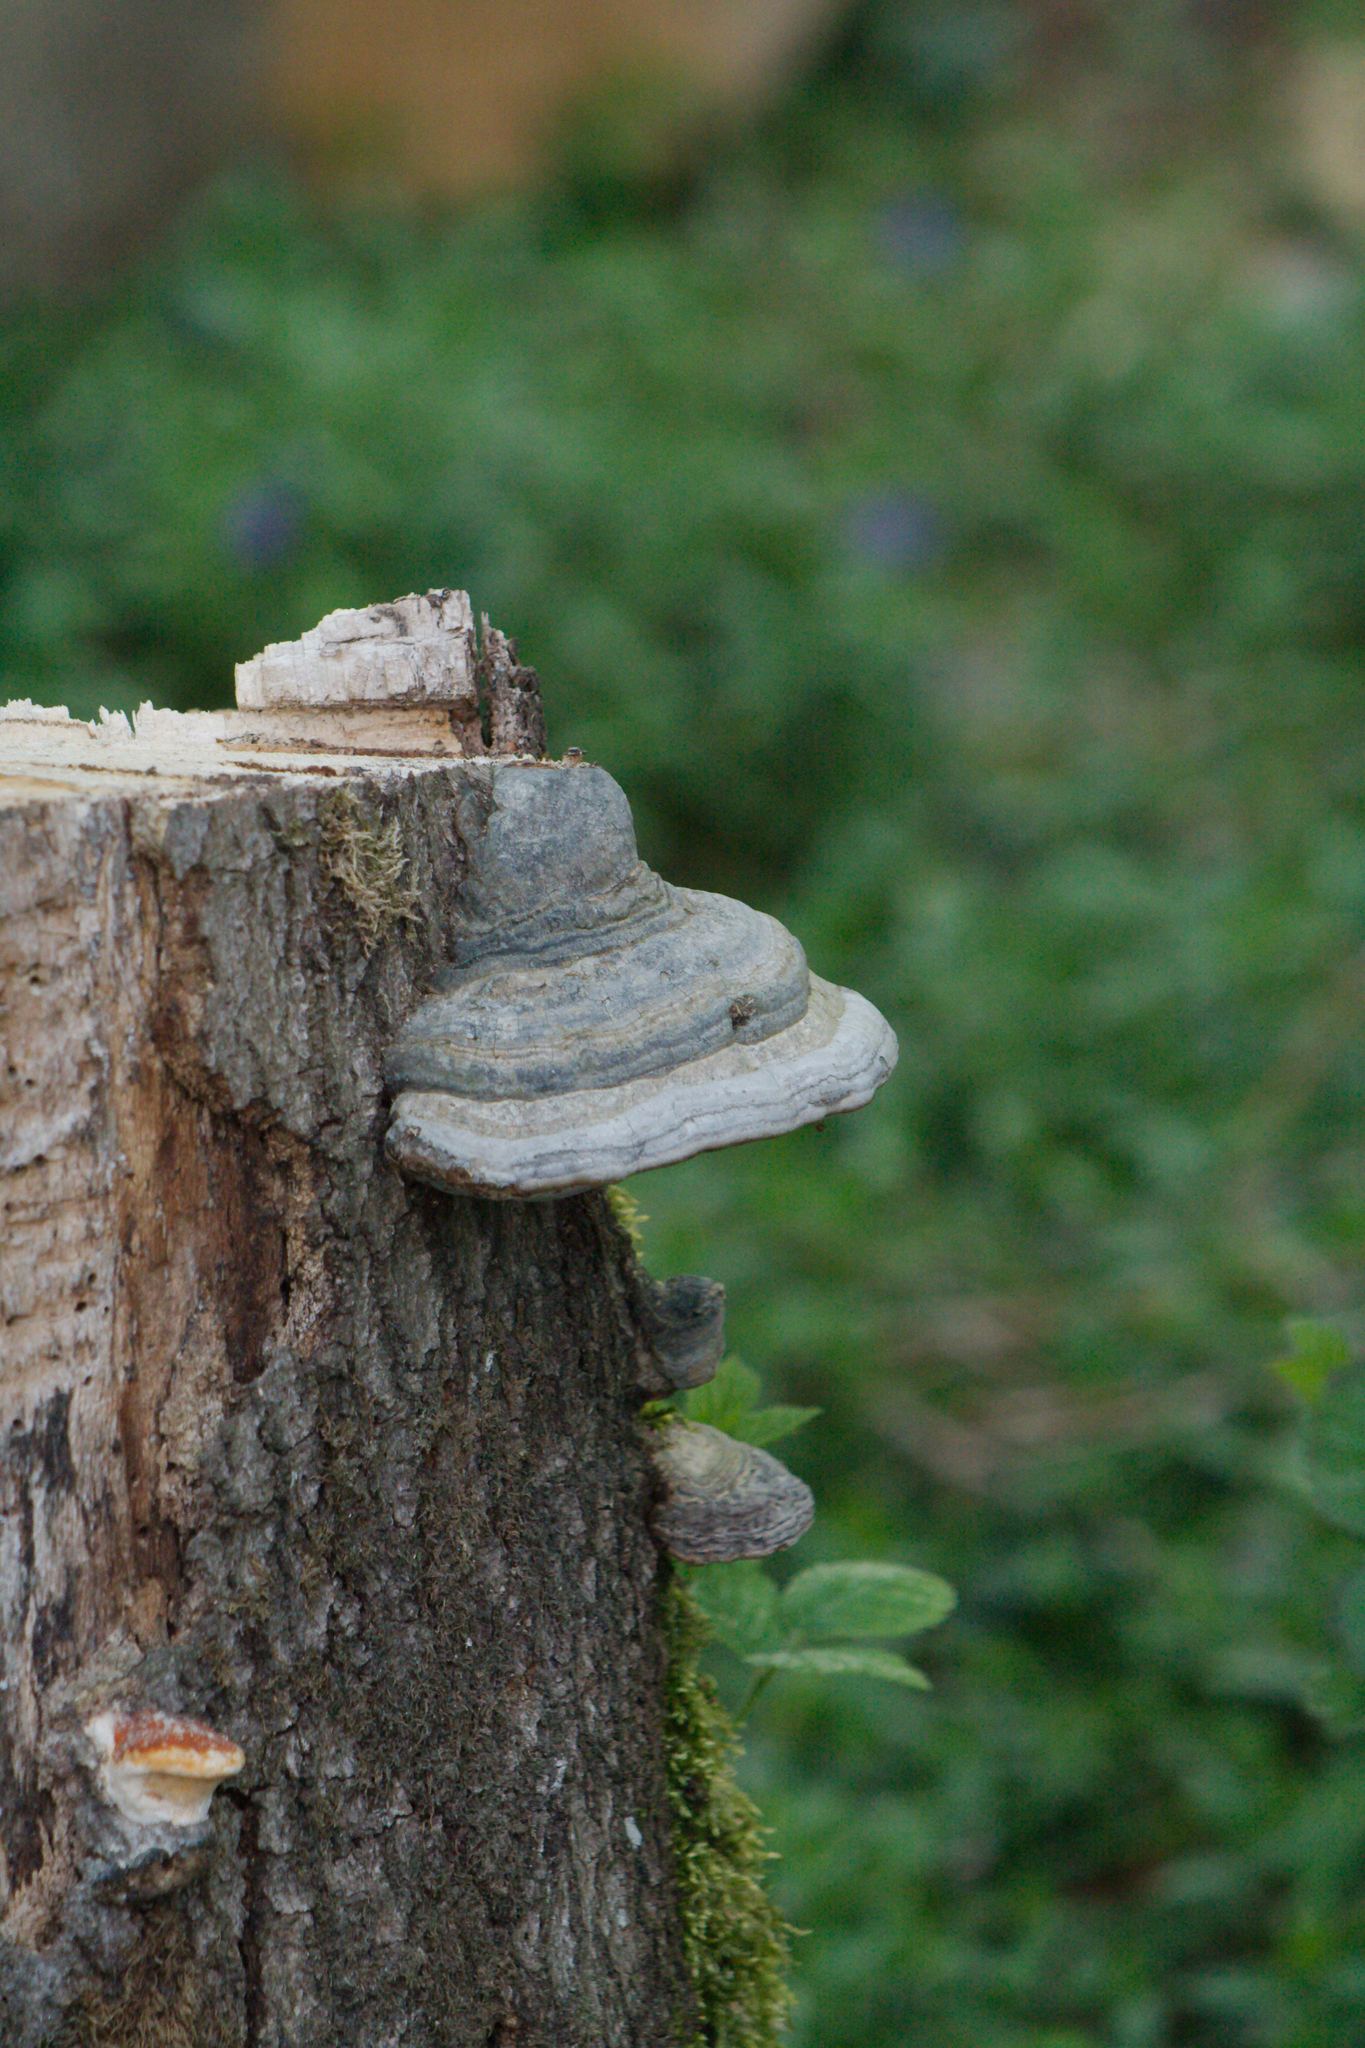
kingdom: Fungi
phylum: Basidiomycota
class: Agaricomycetes
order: Polyporales
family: Polyporaceae
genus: Fomes
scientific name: Fomes fomentarius
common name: Hoof fungus
